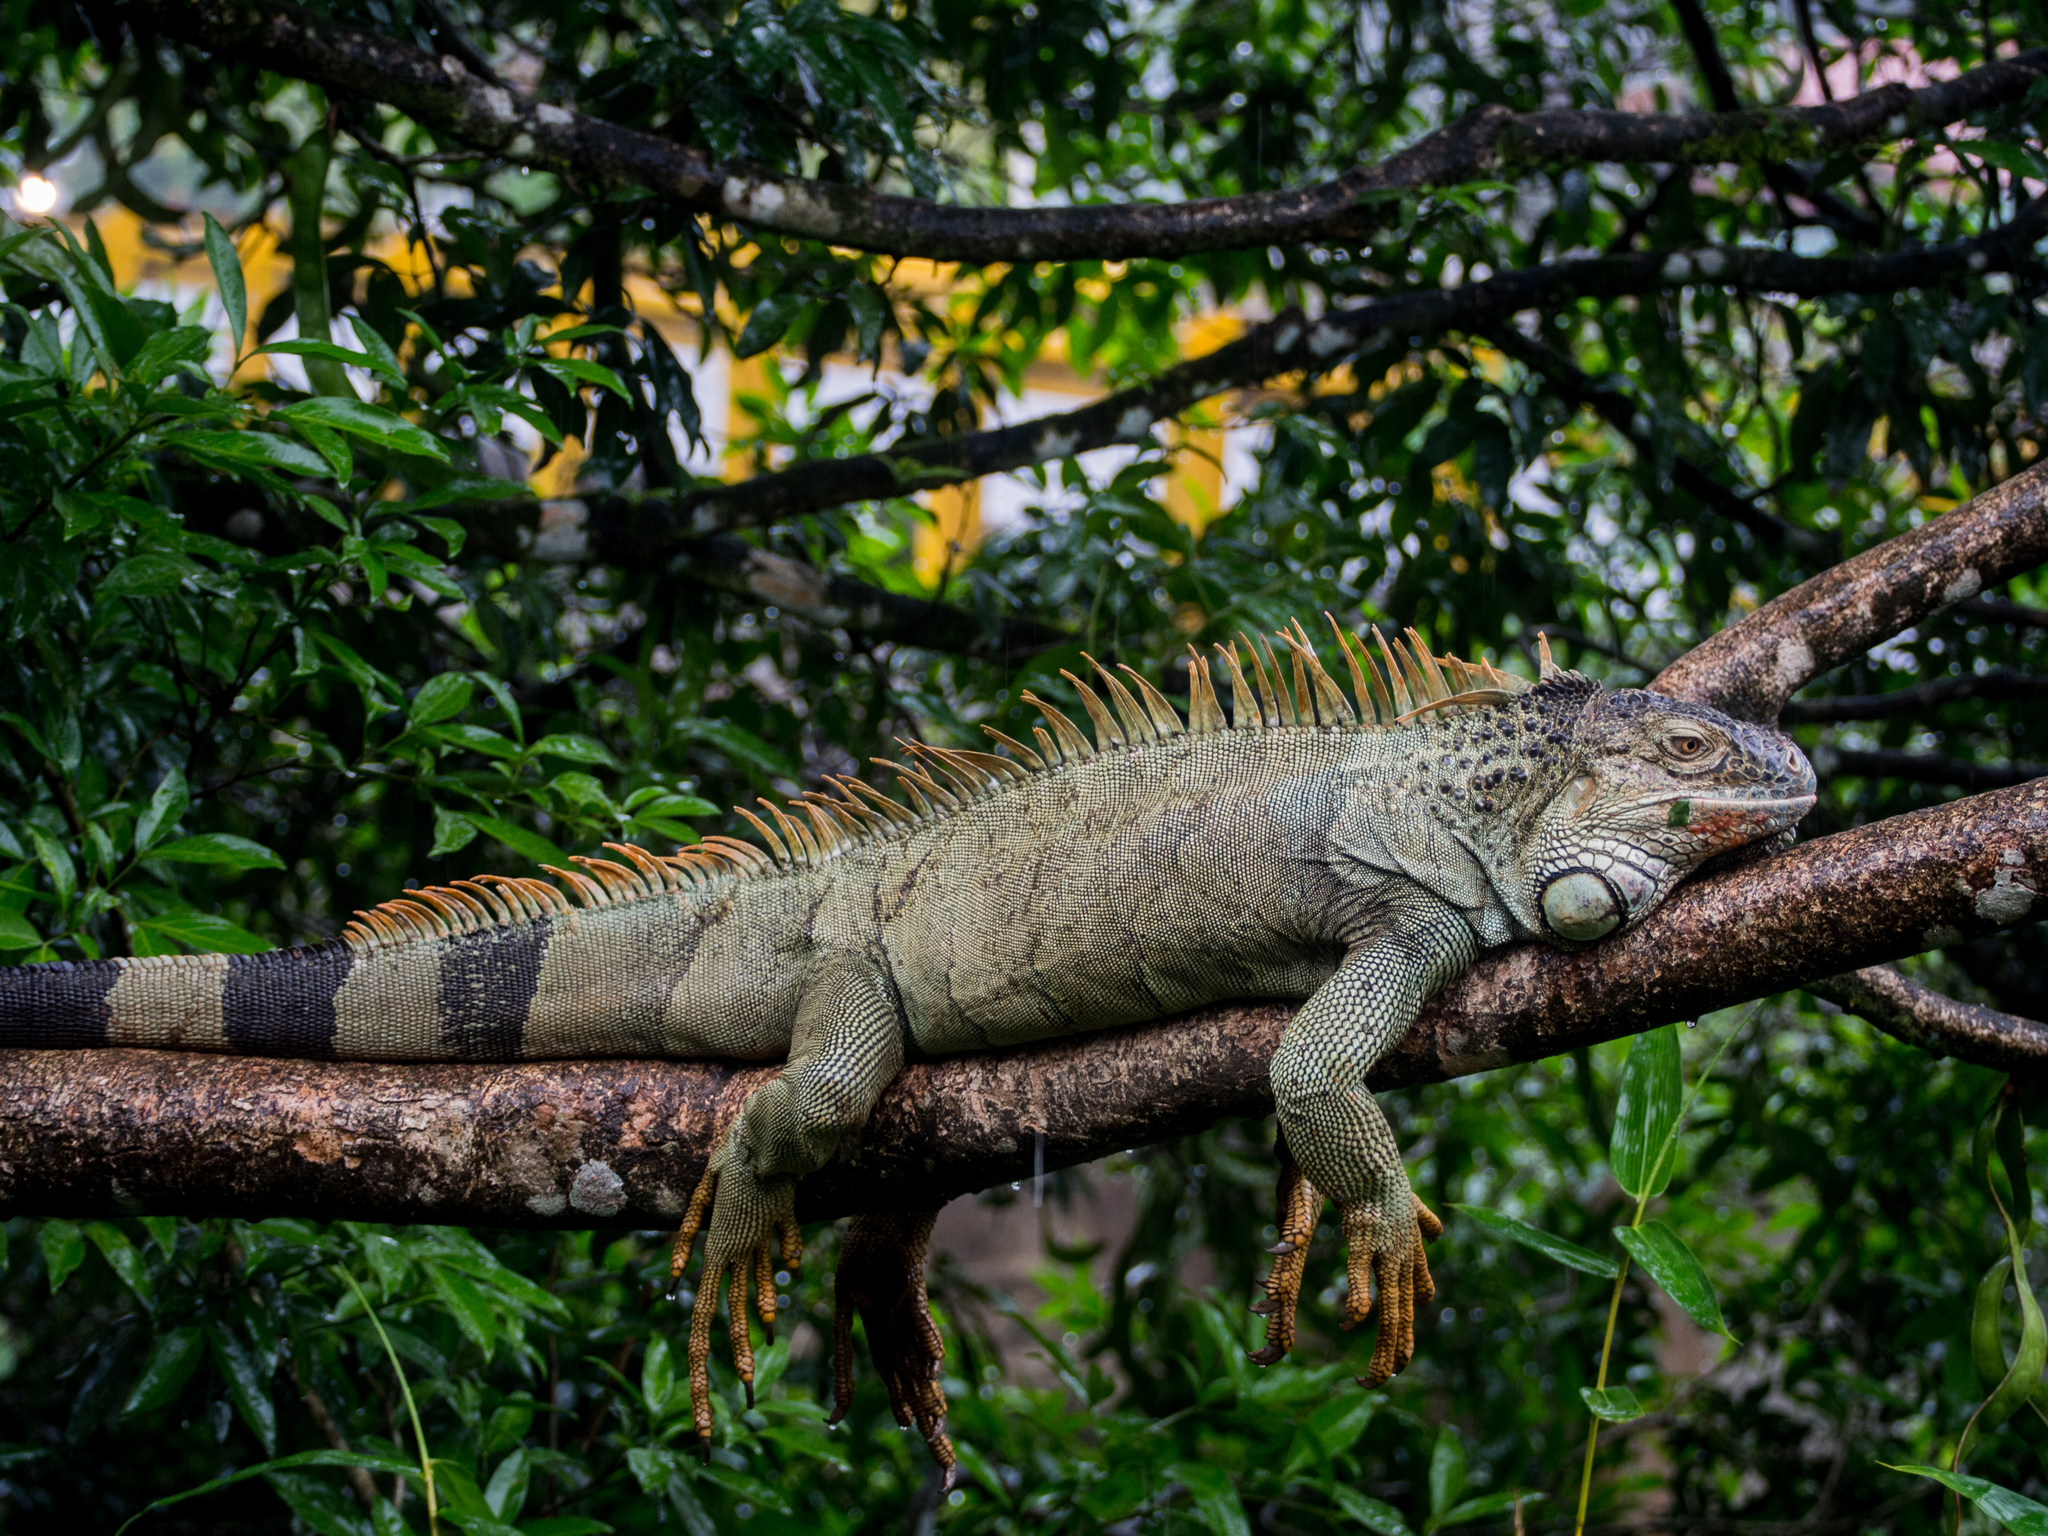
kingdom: Animalia
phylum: Chordata
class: Squamata
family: Iguanidae
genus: Iguana
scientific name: Iguana iguana
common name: Green iguana
